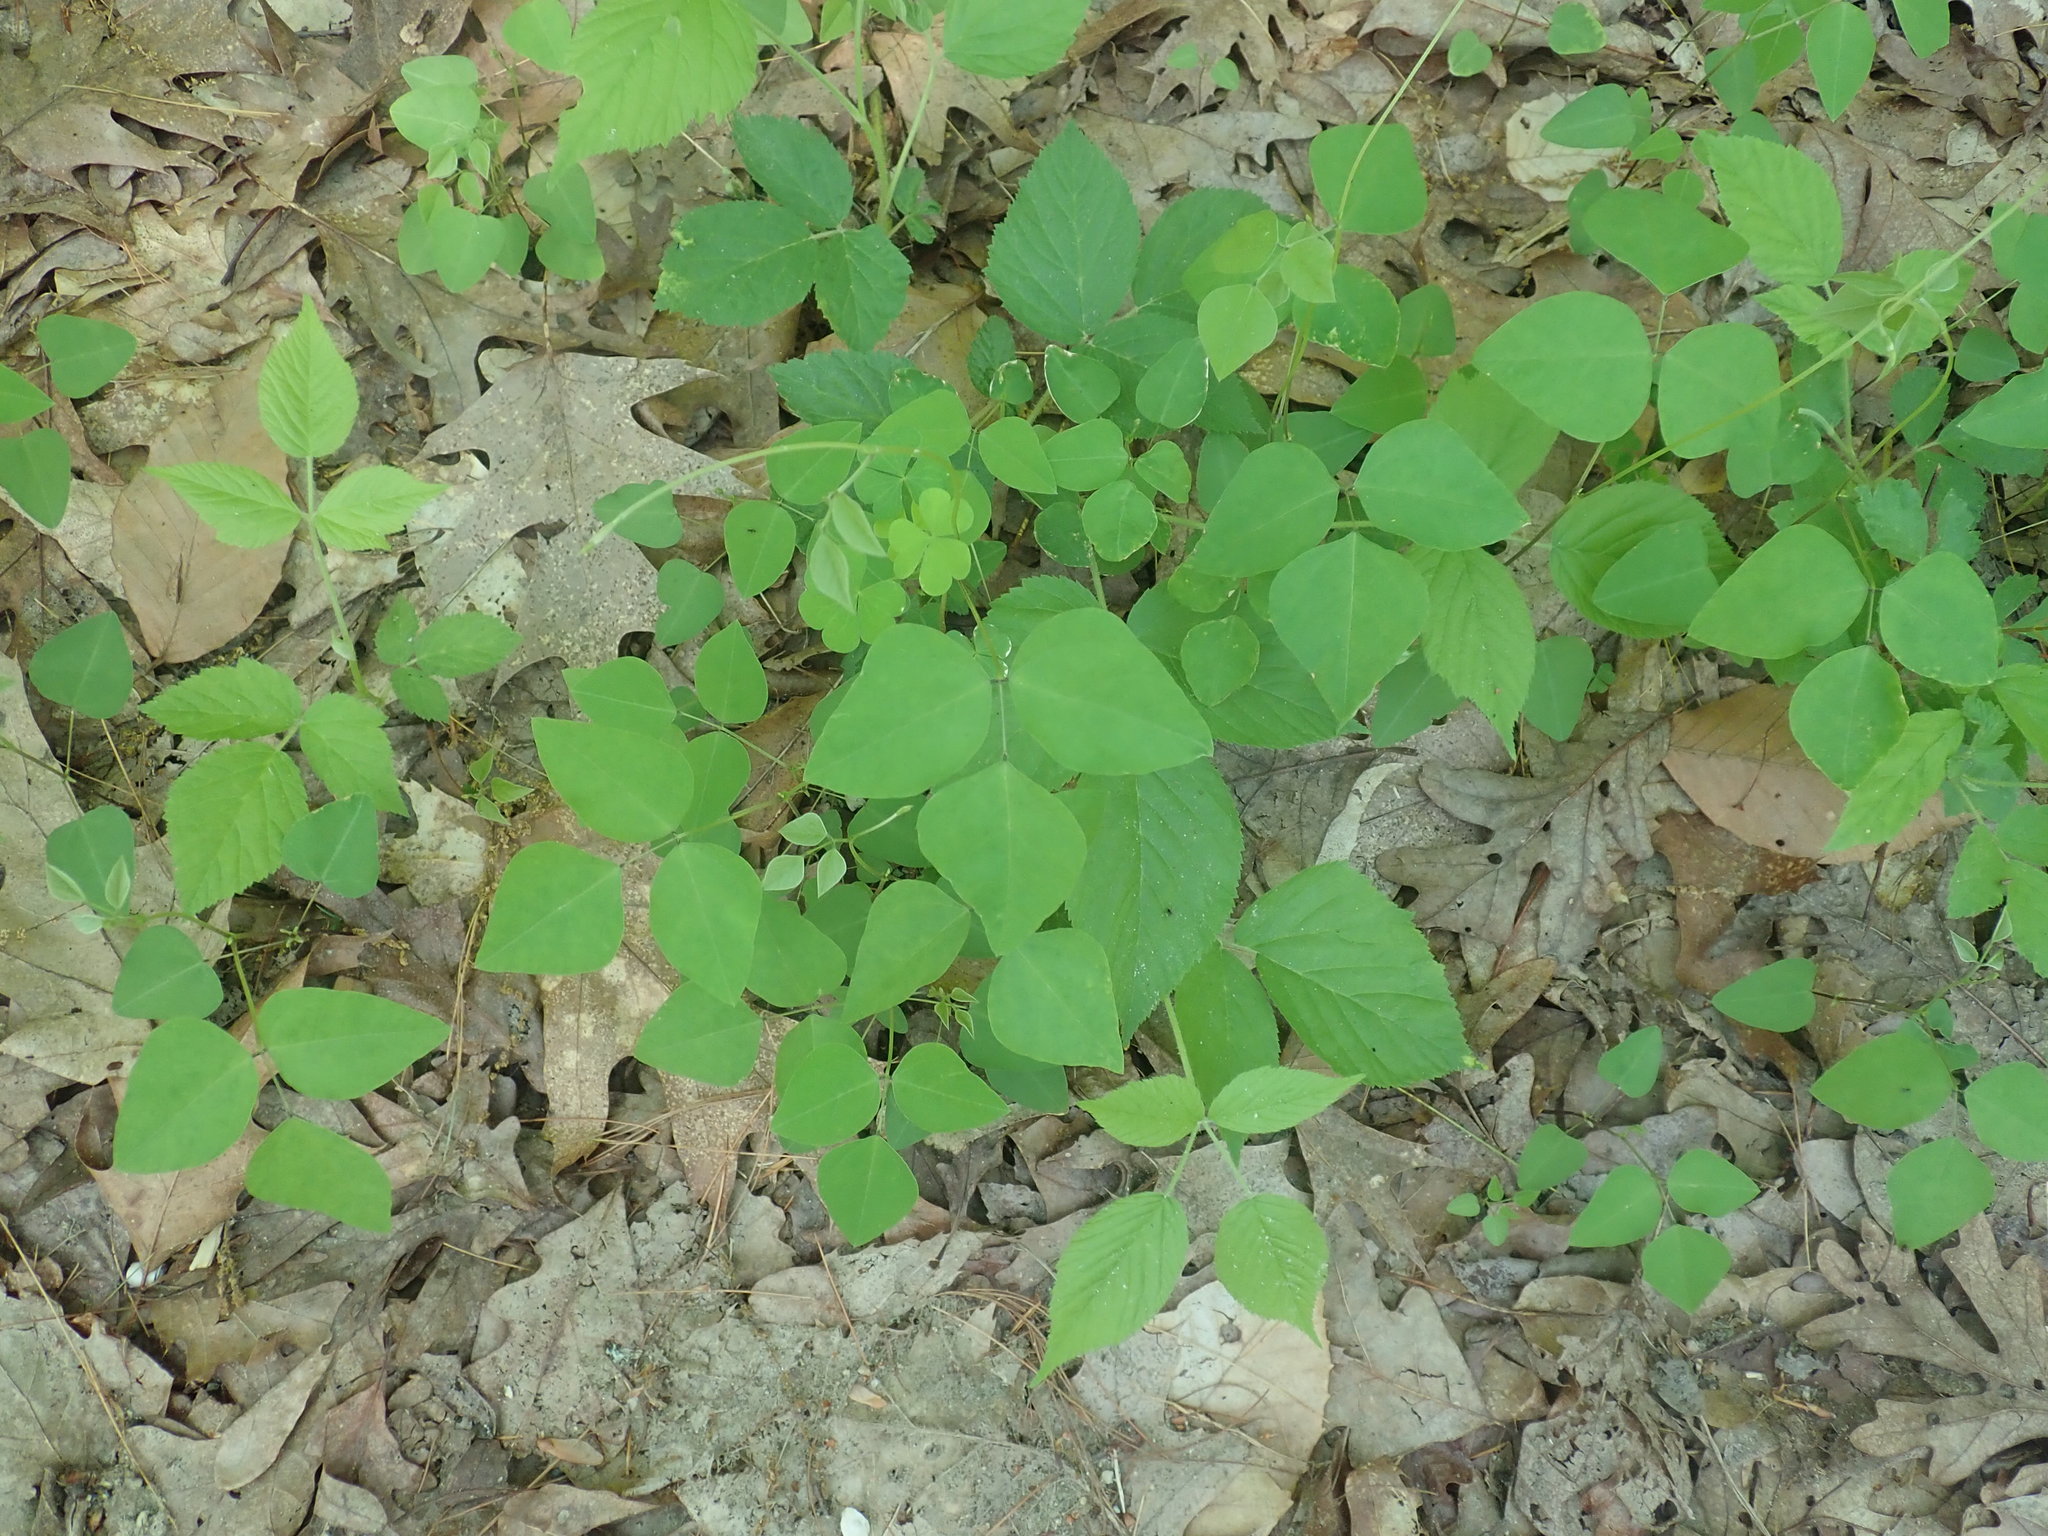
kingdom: Plantae
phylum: Tracheophyta
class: Magnoliopsida
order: Fabales
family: Fabaceae
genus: Amphicarpaea
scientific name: Amphicarpaea bracteata
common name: American hog peanut
